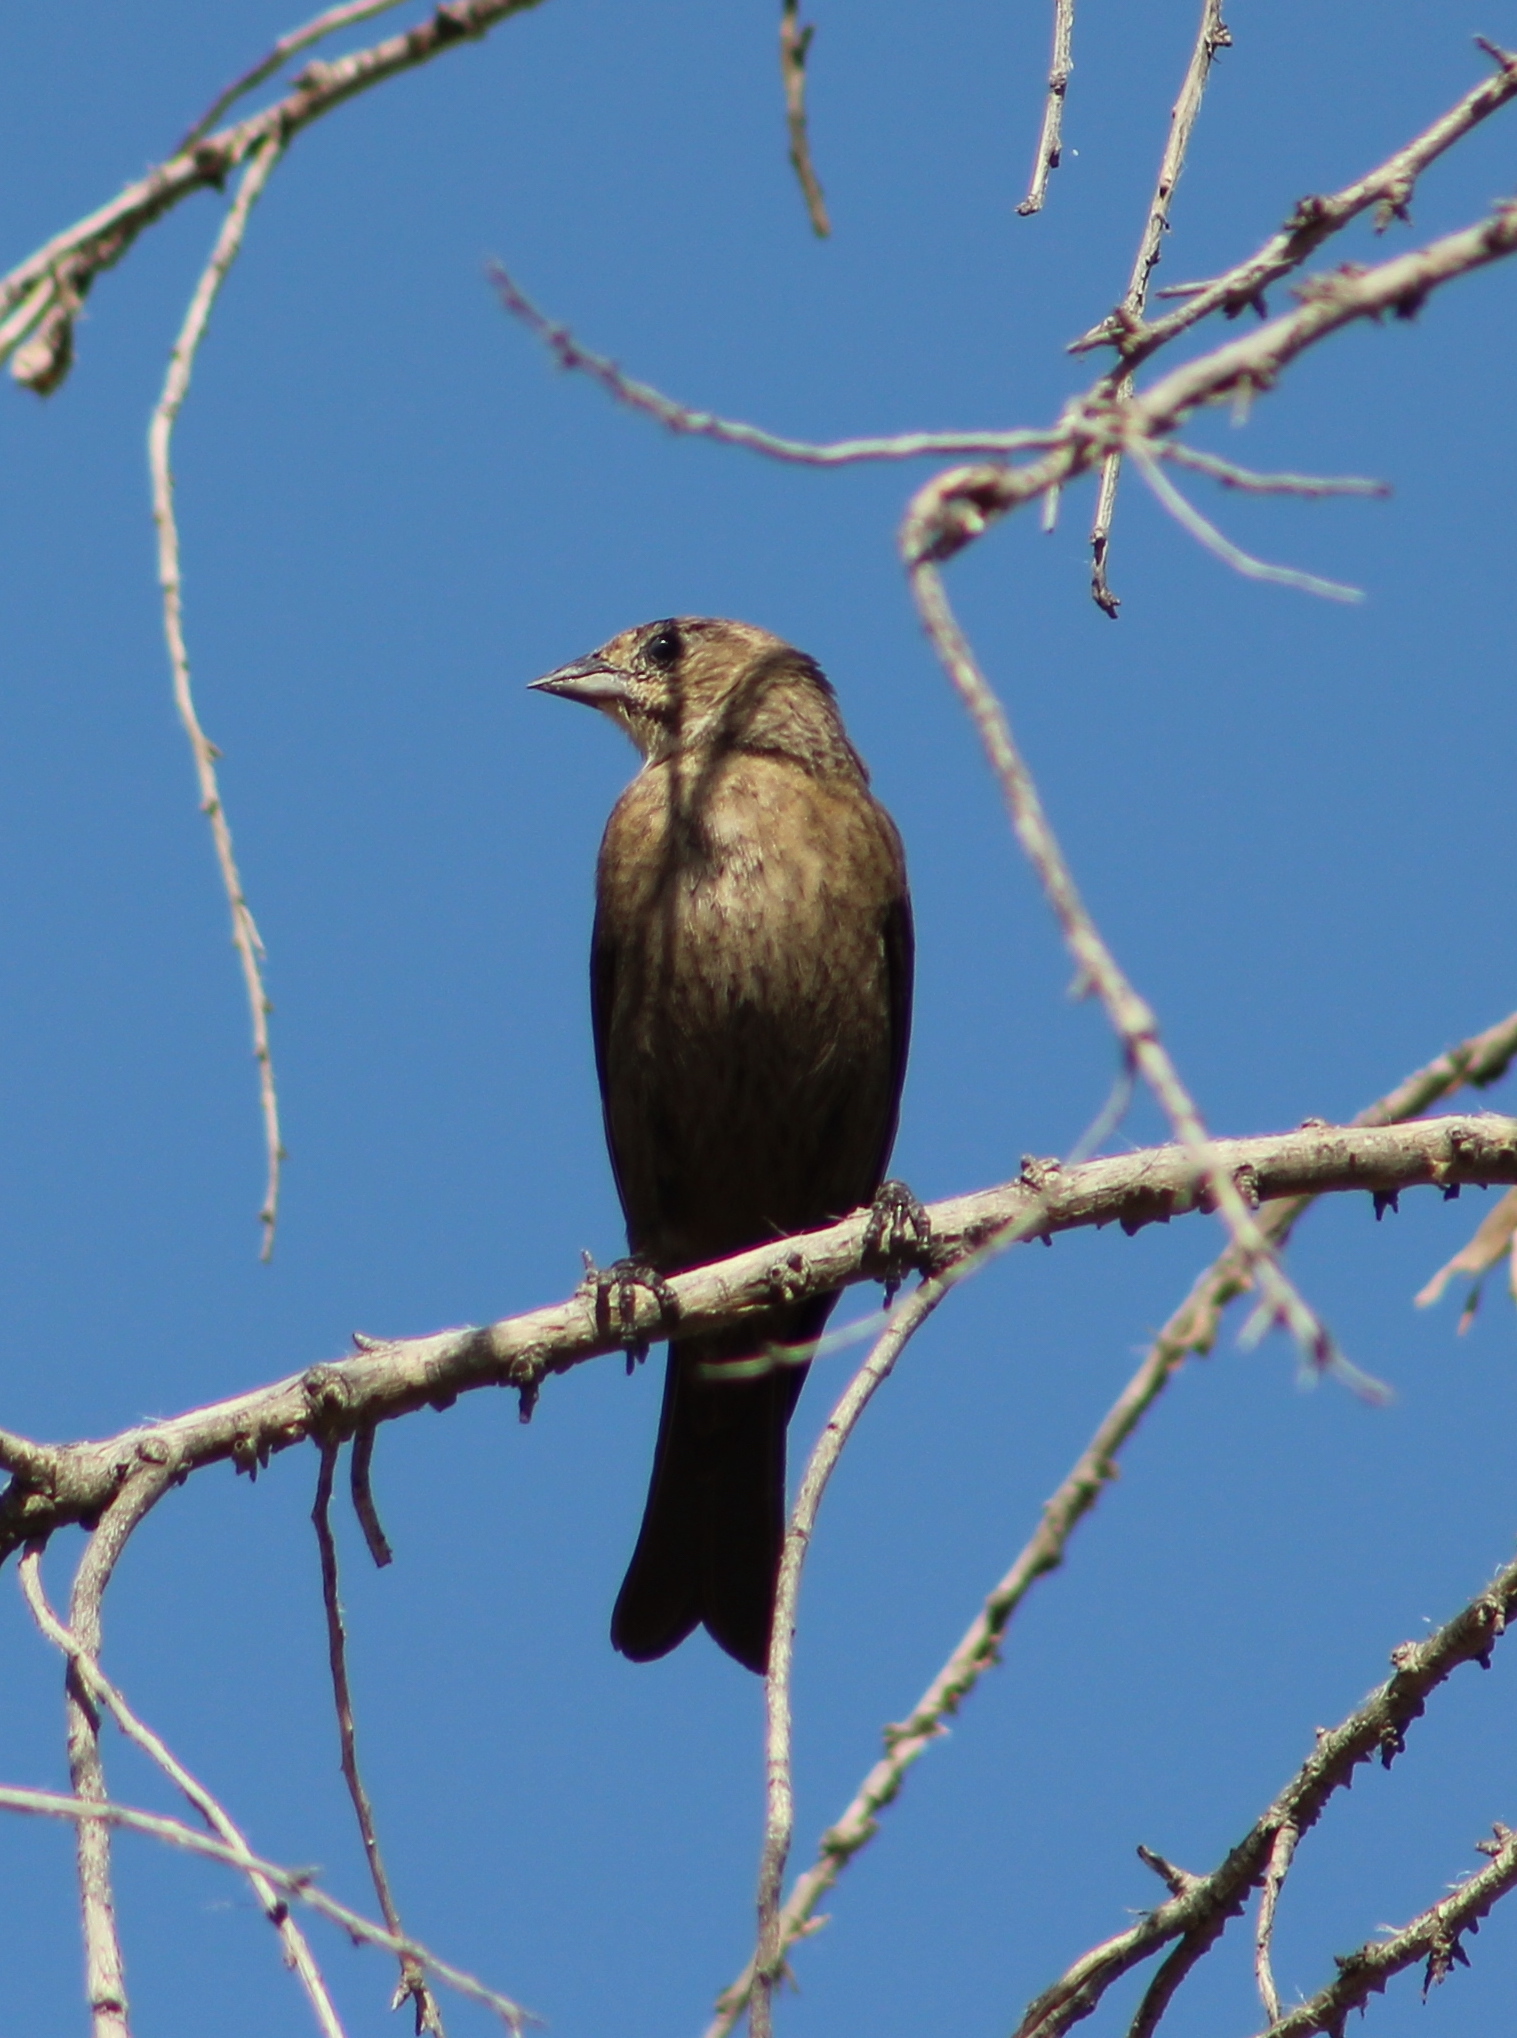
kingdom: Animalia
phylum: Chordata
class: Aves
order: Passeriformes
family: Icteridae
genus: Molothrus
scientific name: Molothrus ater
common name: Brown-headed cowbird
